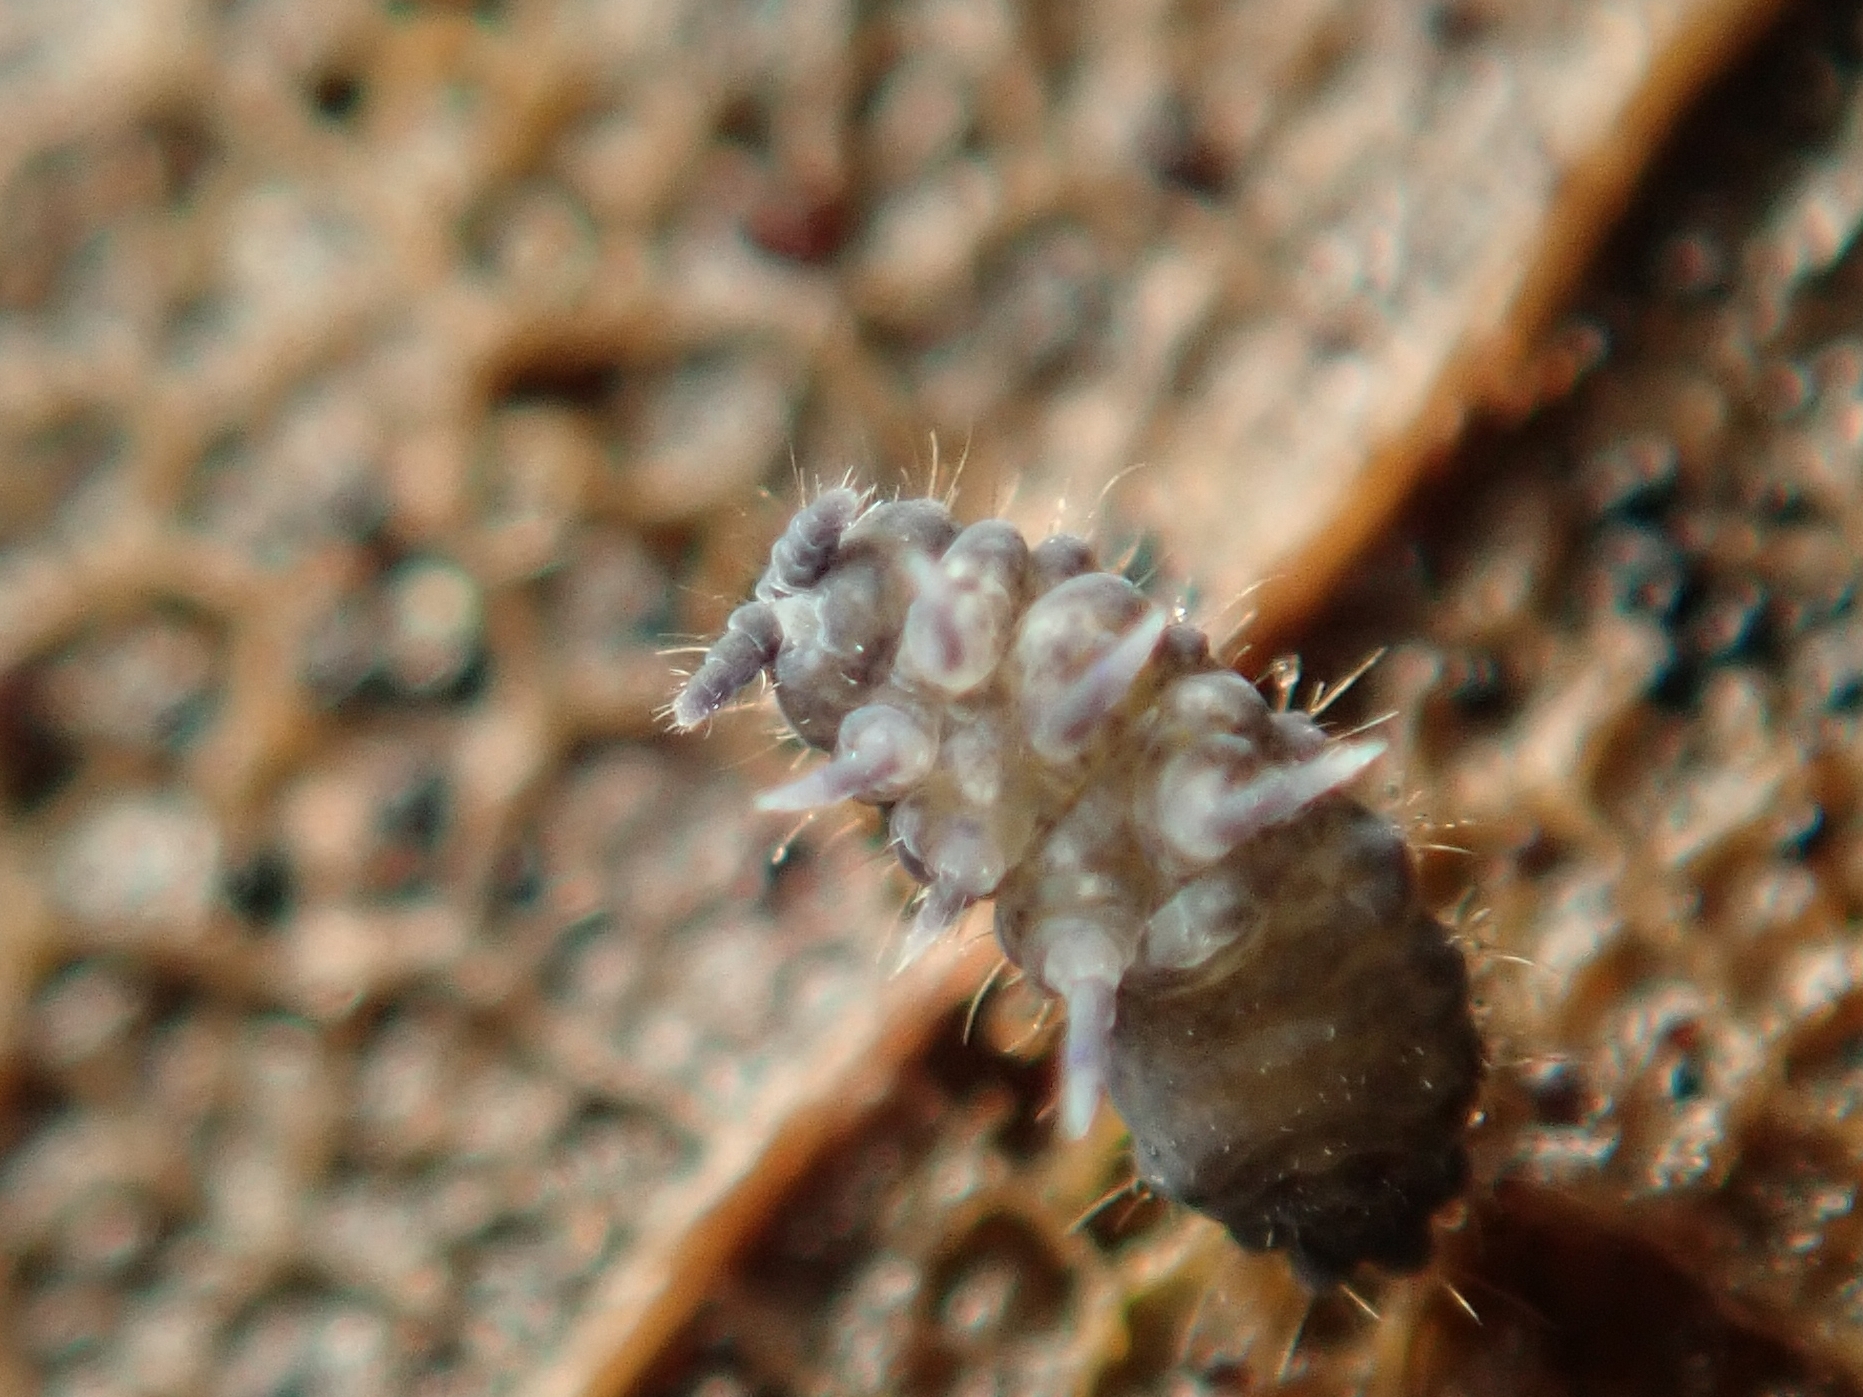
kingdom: Animalia
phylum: Arthropoda
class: Collembola
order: Poduromorpha
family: Neanuridae
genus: Neanura
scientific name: Neanura muscorum
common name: Springtail
